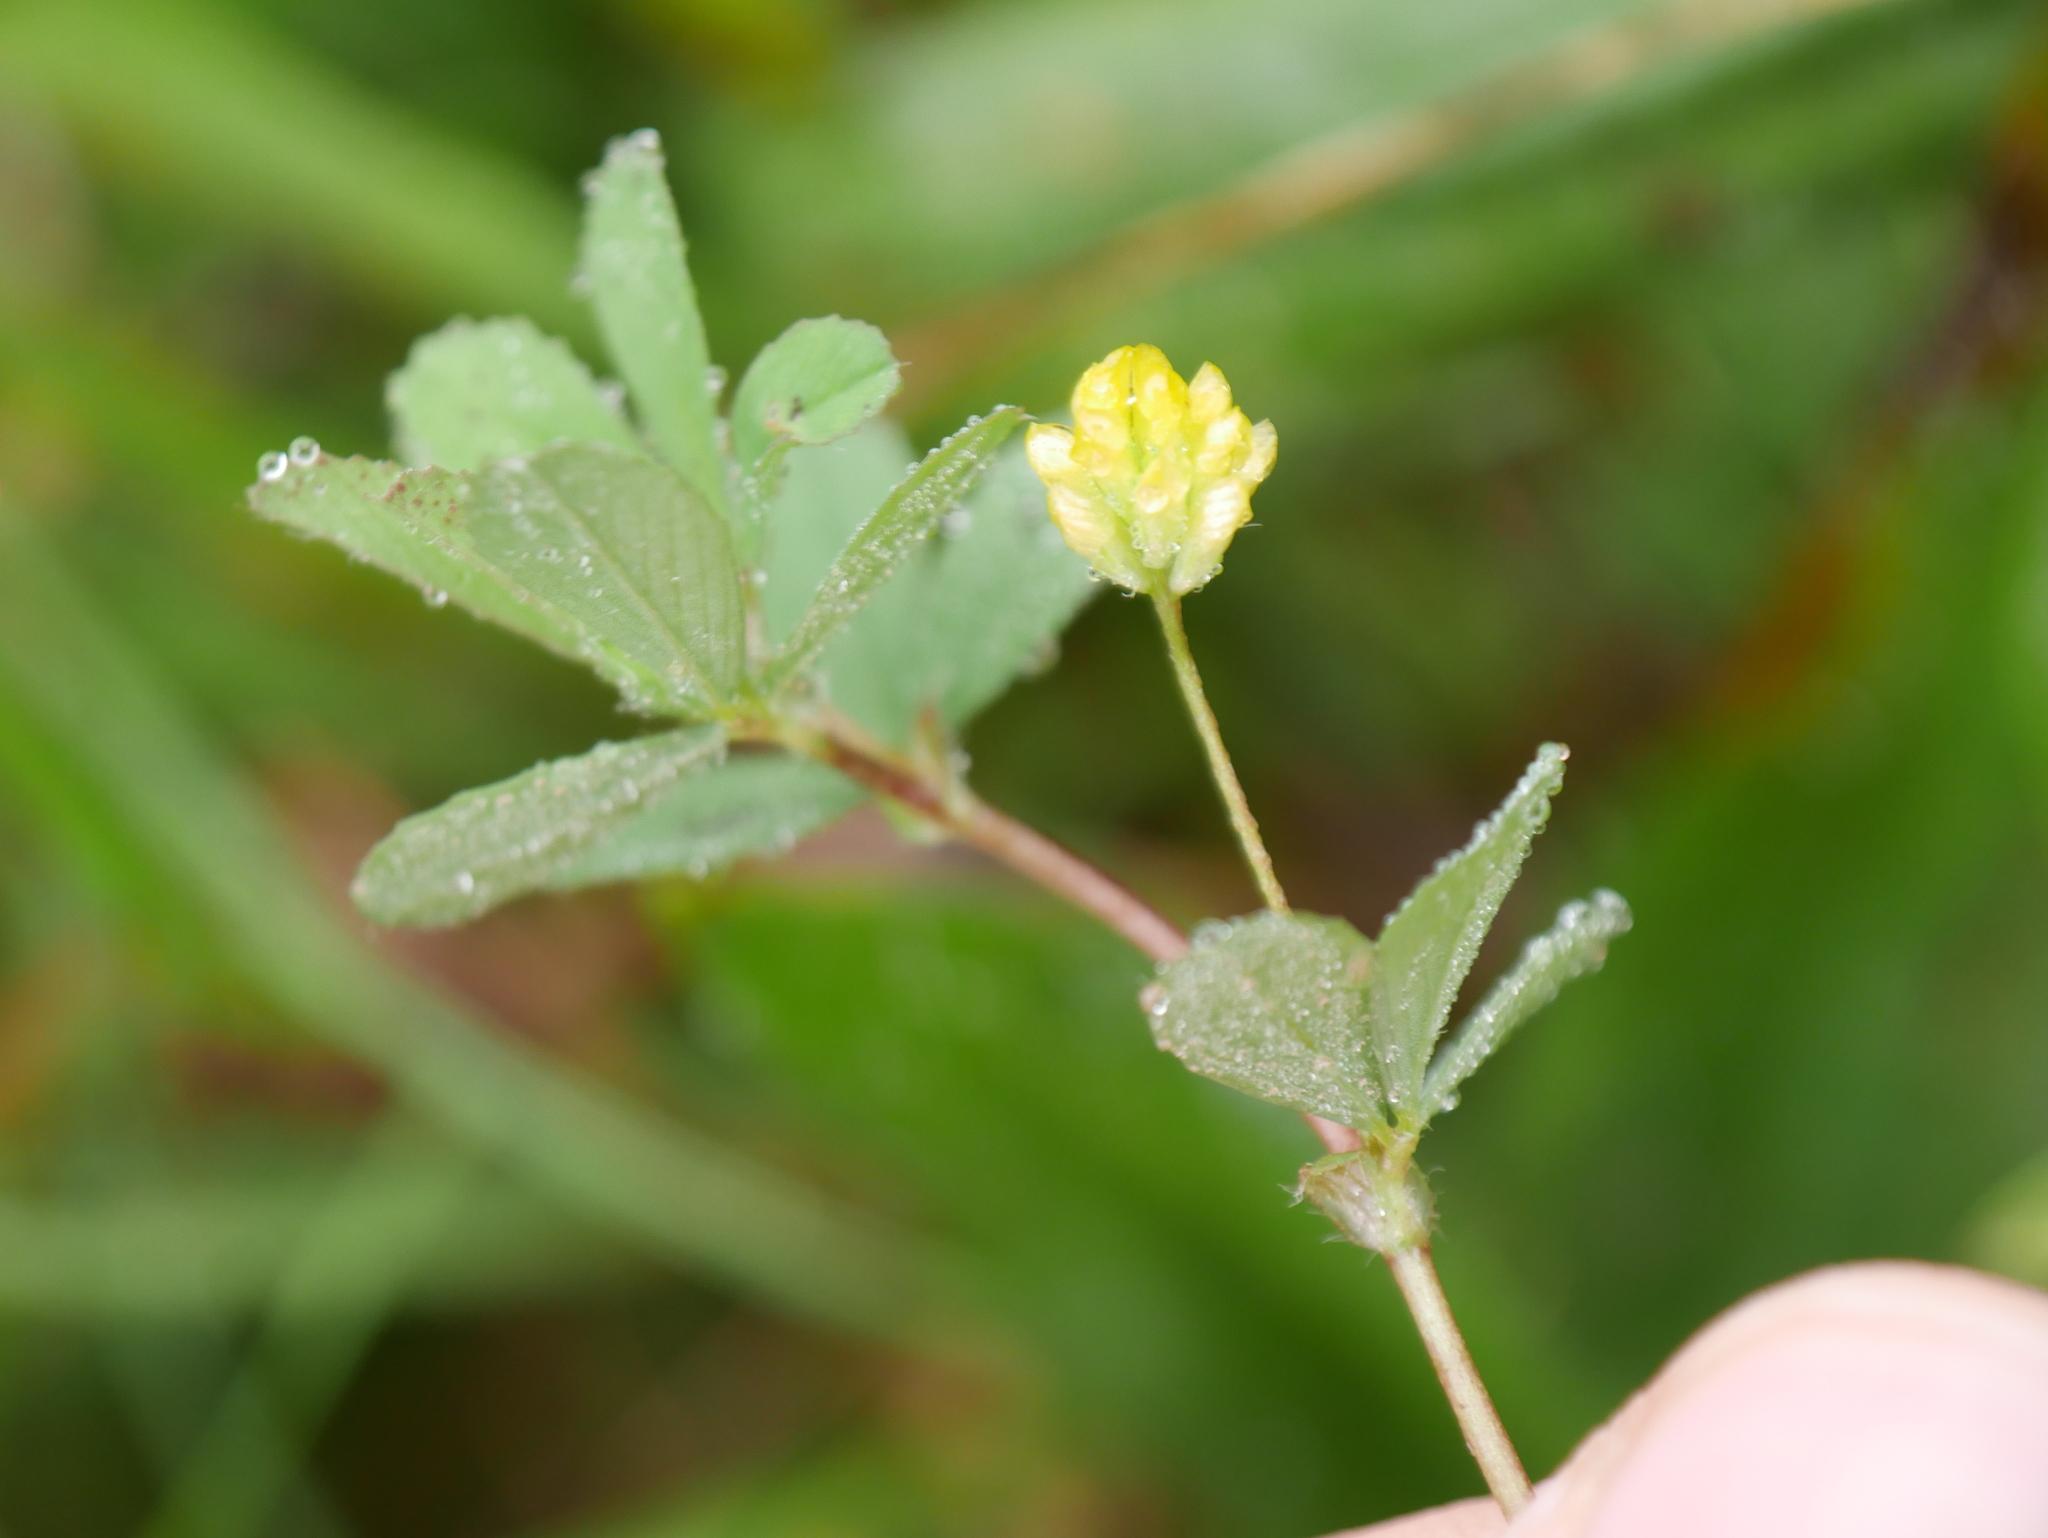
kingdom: Plantae
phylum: Tracheophyta
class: Magnoliopsida
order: Fabales
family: Fabaceae
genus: Trifolium
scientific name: Trifolium dubium
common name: Suckling clover
